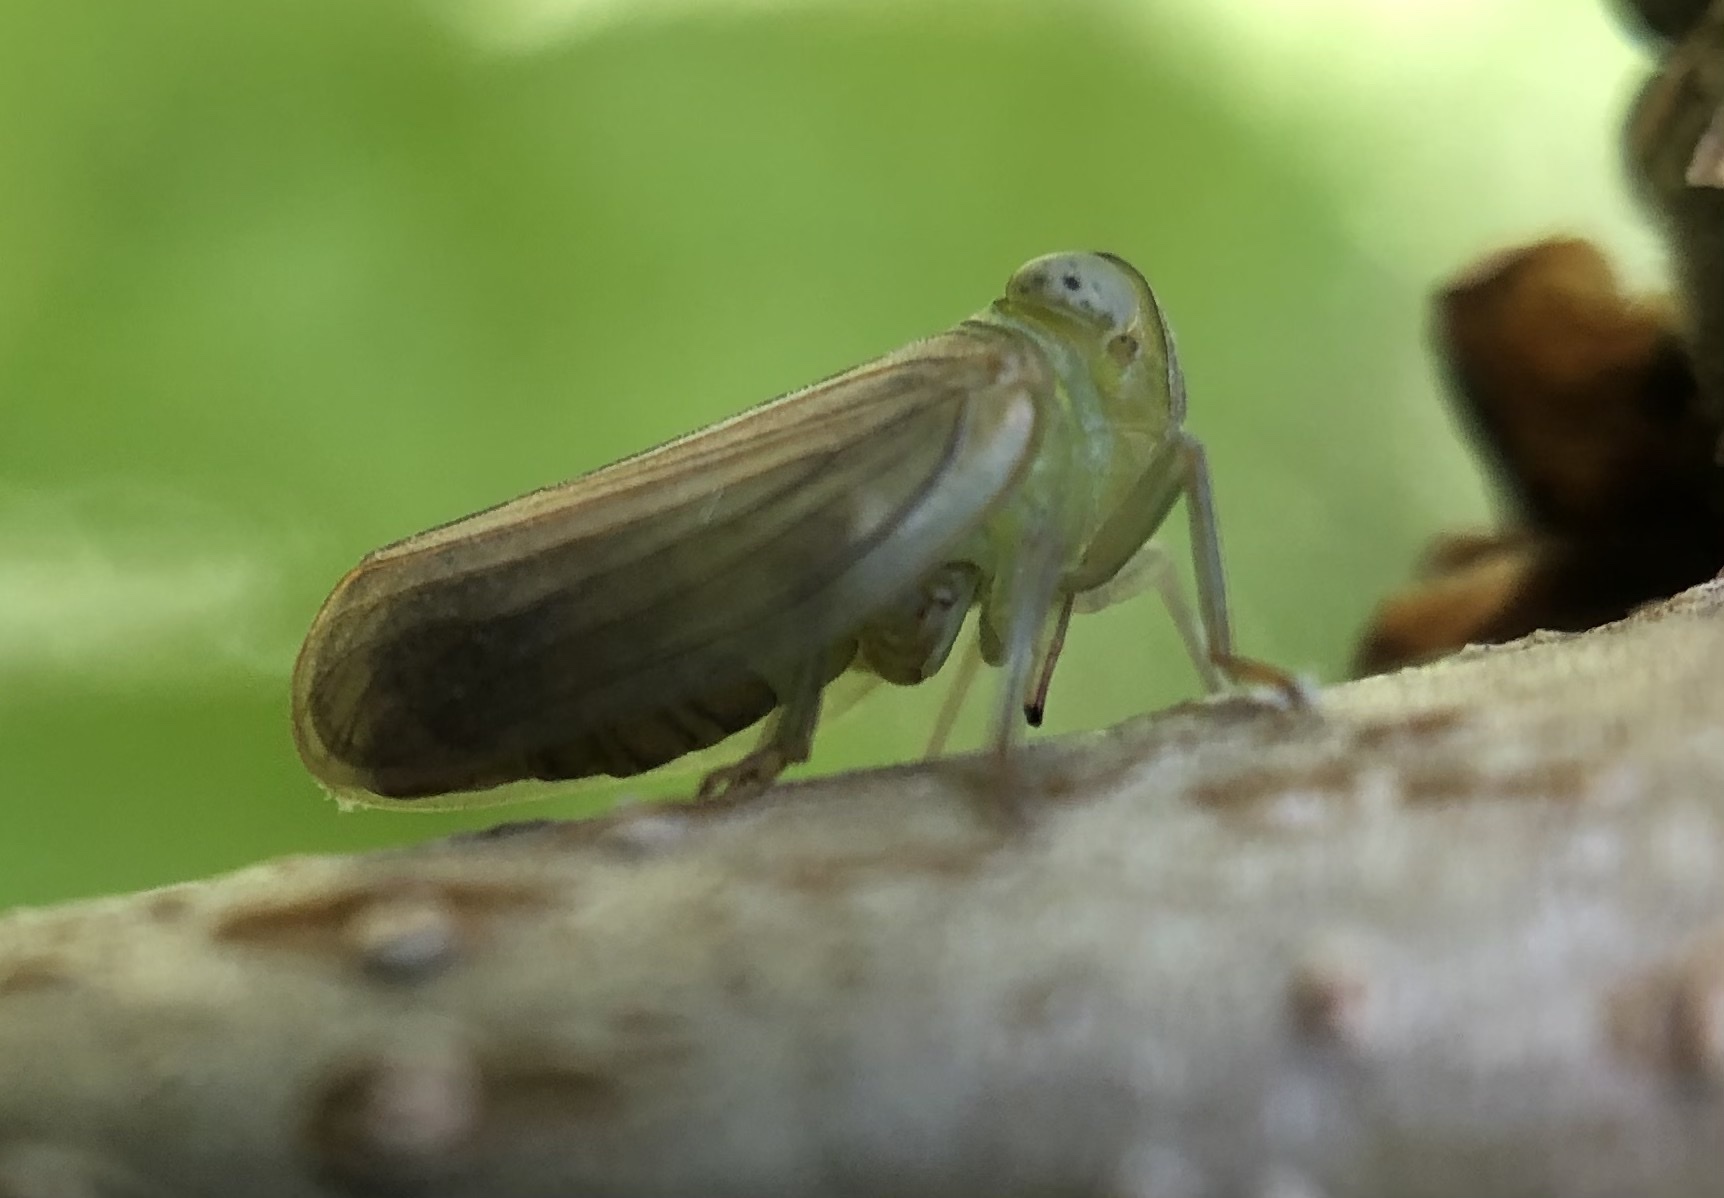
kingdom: Animalia
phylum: Arthropoda
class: Insecta
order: Hemiptera
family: Issidae
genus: Aplos
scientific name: Aplos simplex
